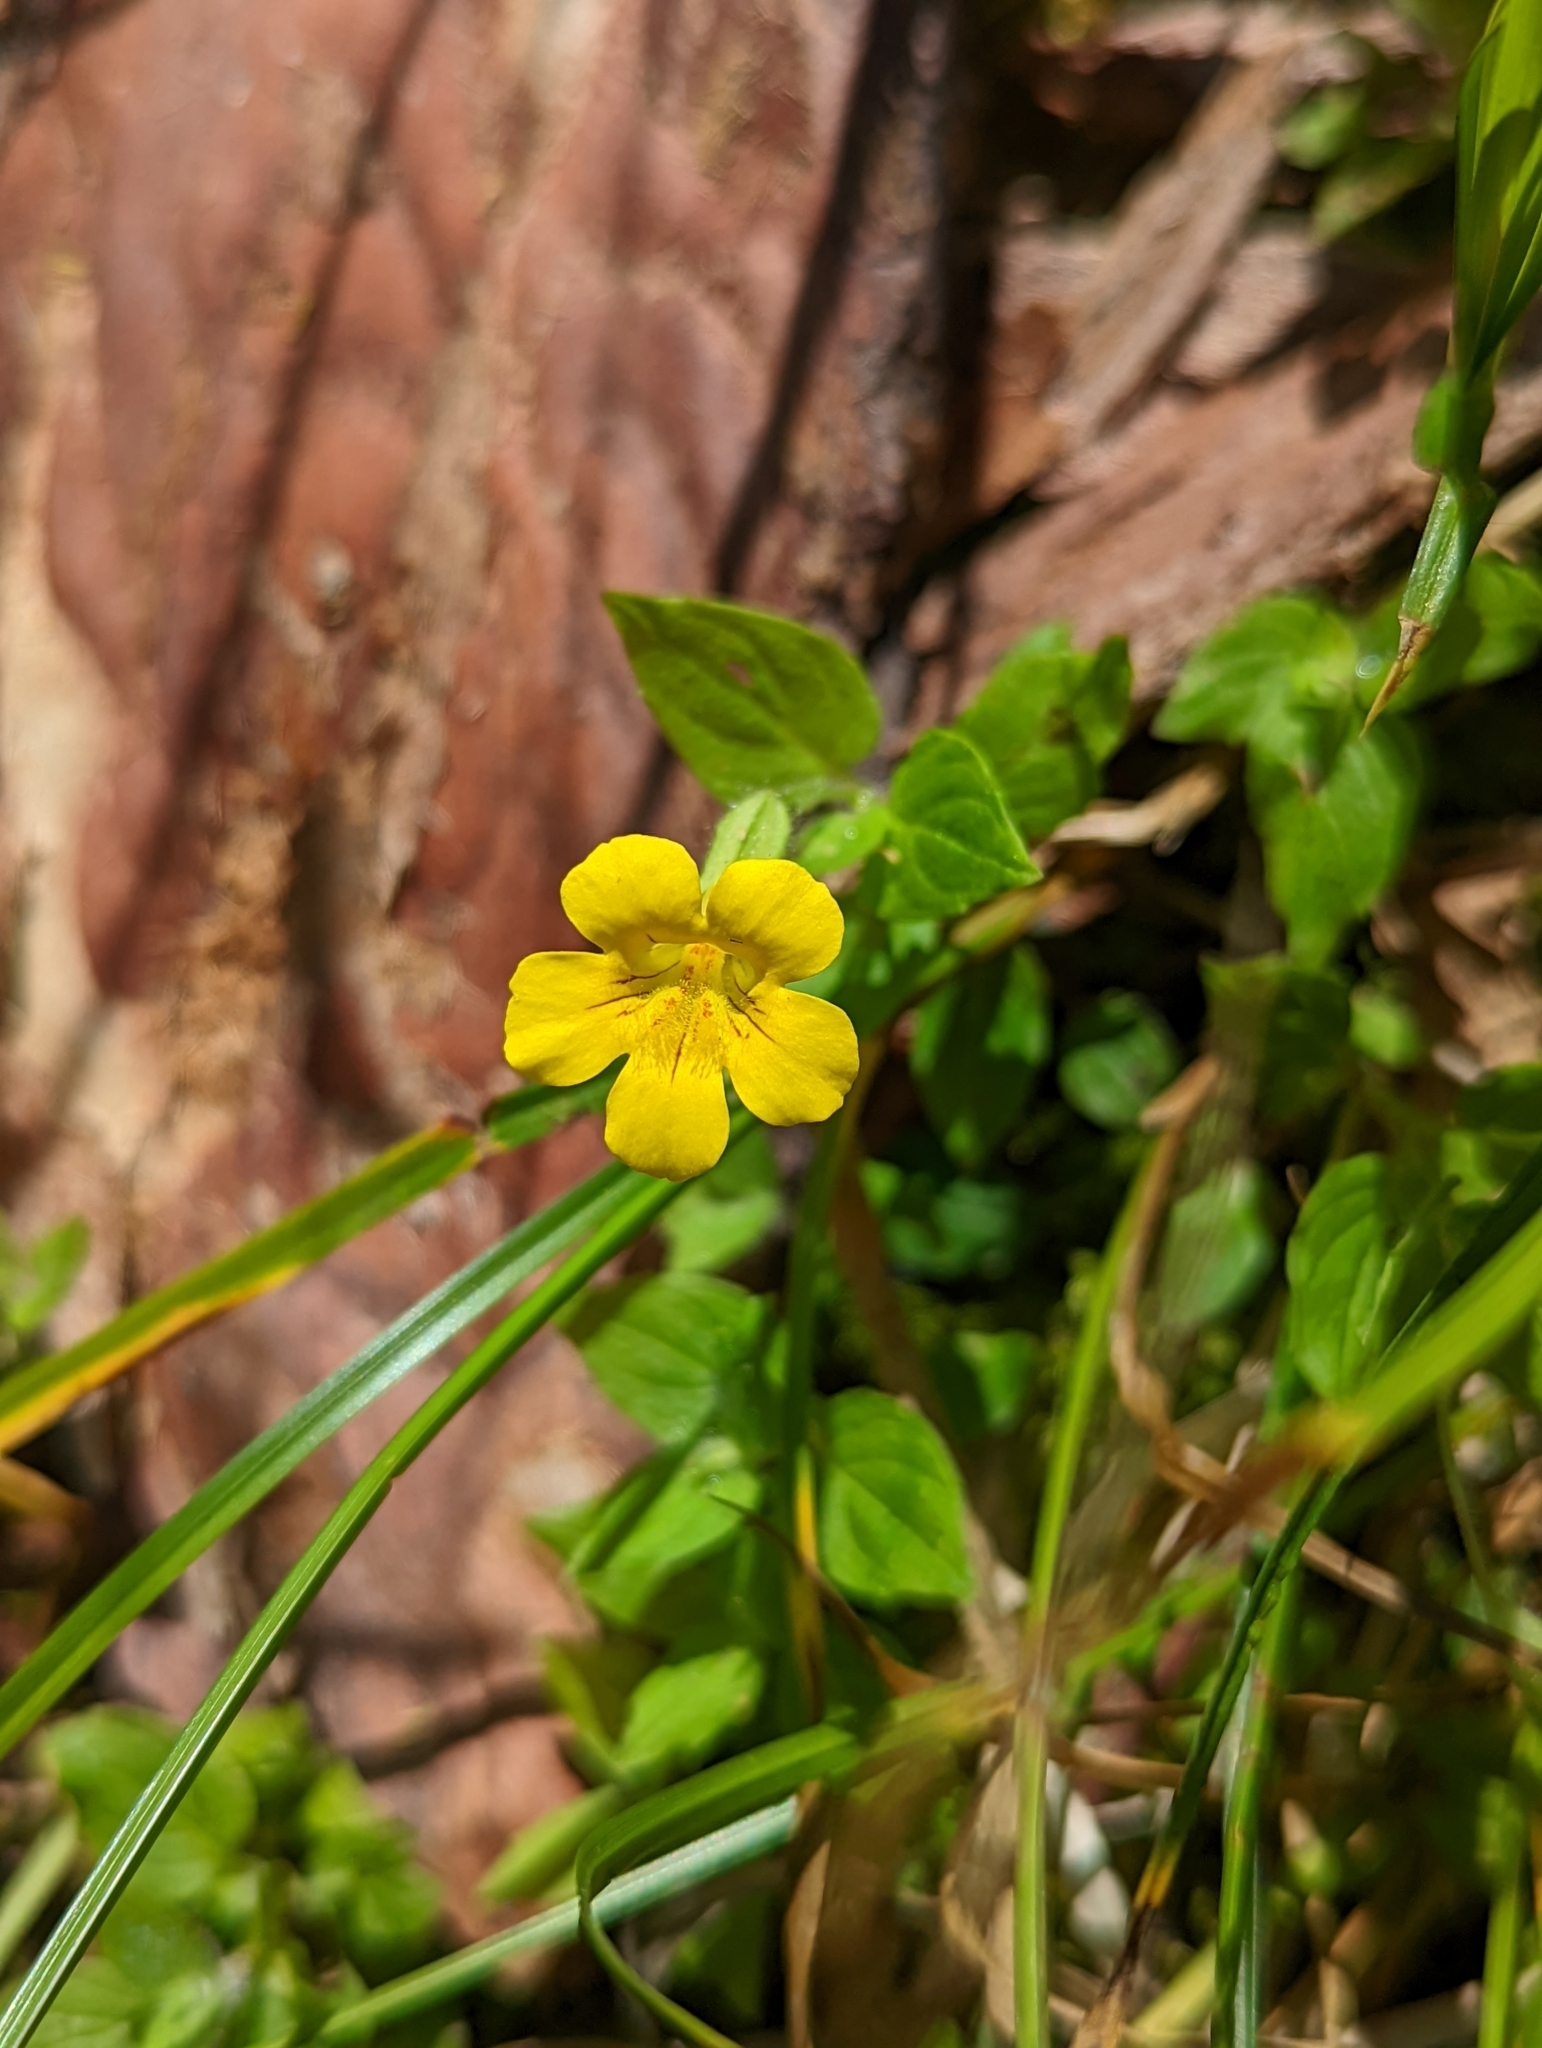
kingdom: Plantae
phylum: Tracheophyta
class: Magnoliopsida
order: Lamiales
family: Phrymaceae
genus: Erythranthe
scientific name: Erythranthe moschata
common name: Muskflower
